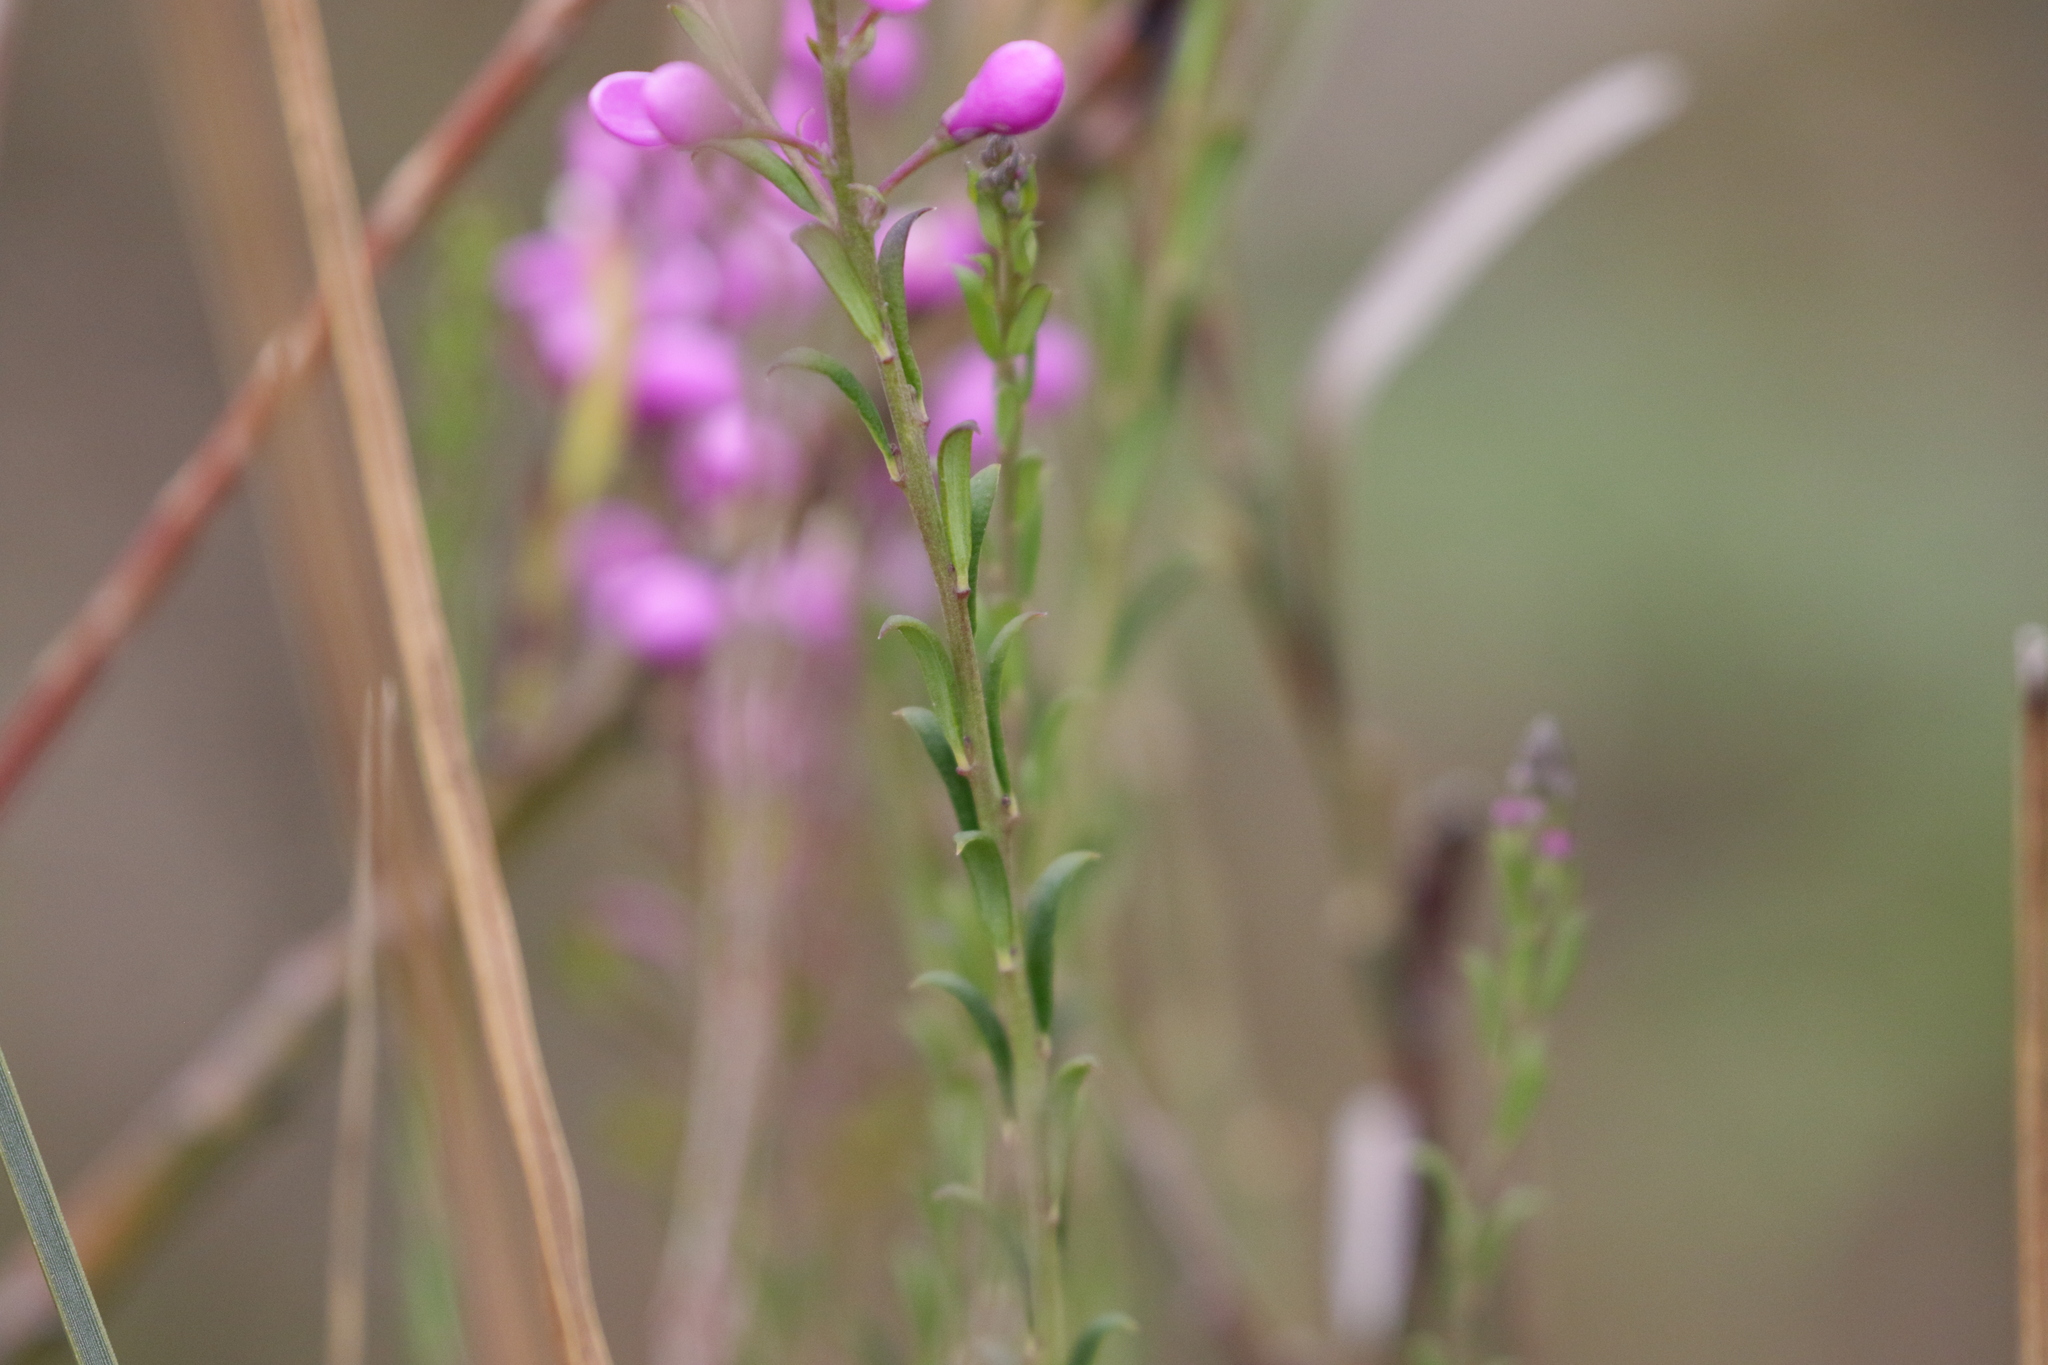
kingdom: Plantae
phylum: Tracheophyta
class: Magnoliopsida
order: Fabales
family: Polygalaceae
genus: Comesperma
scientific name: Comesperma ericinum
